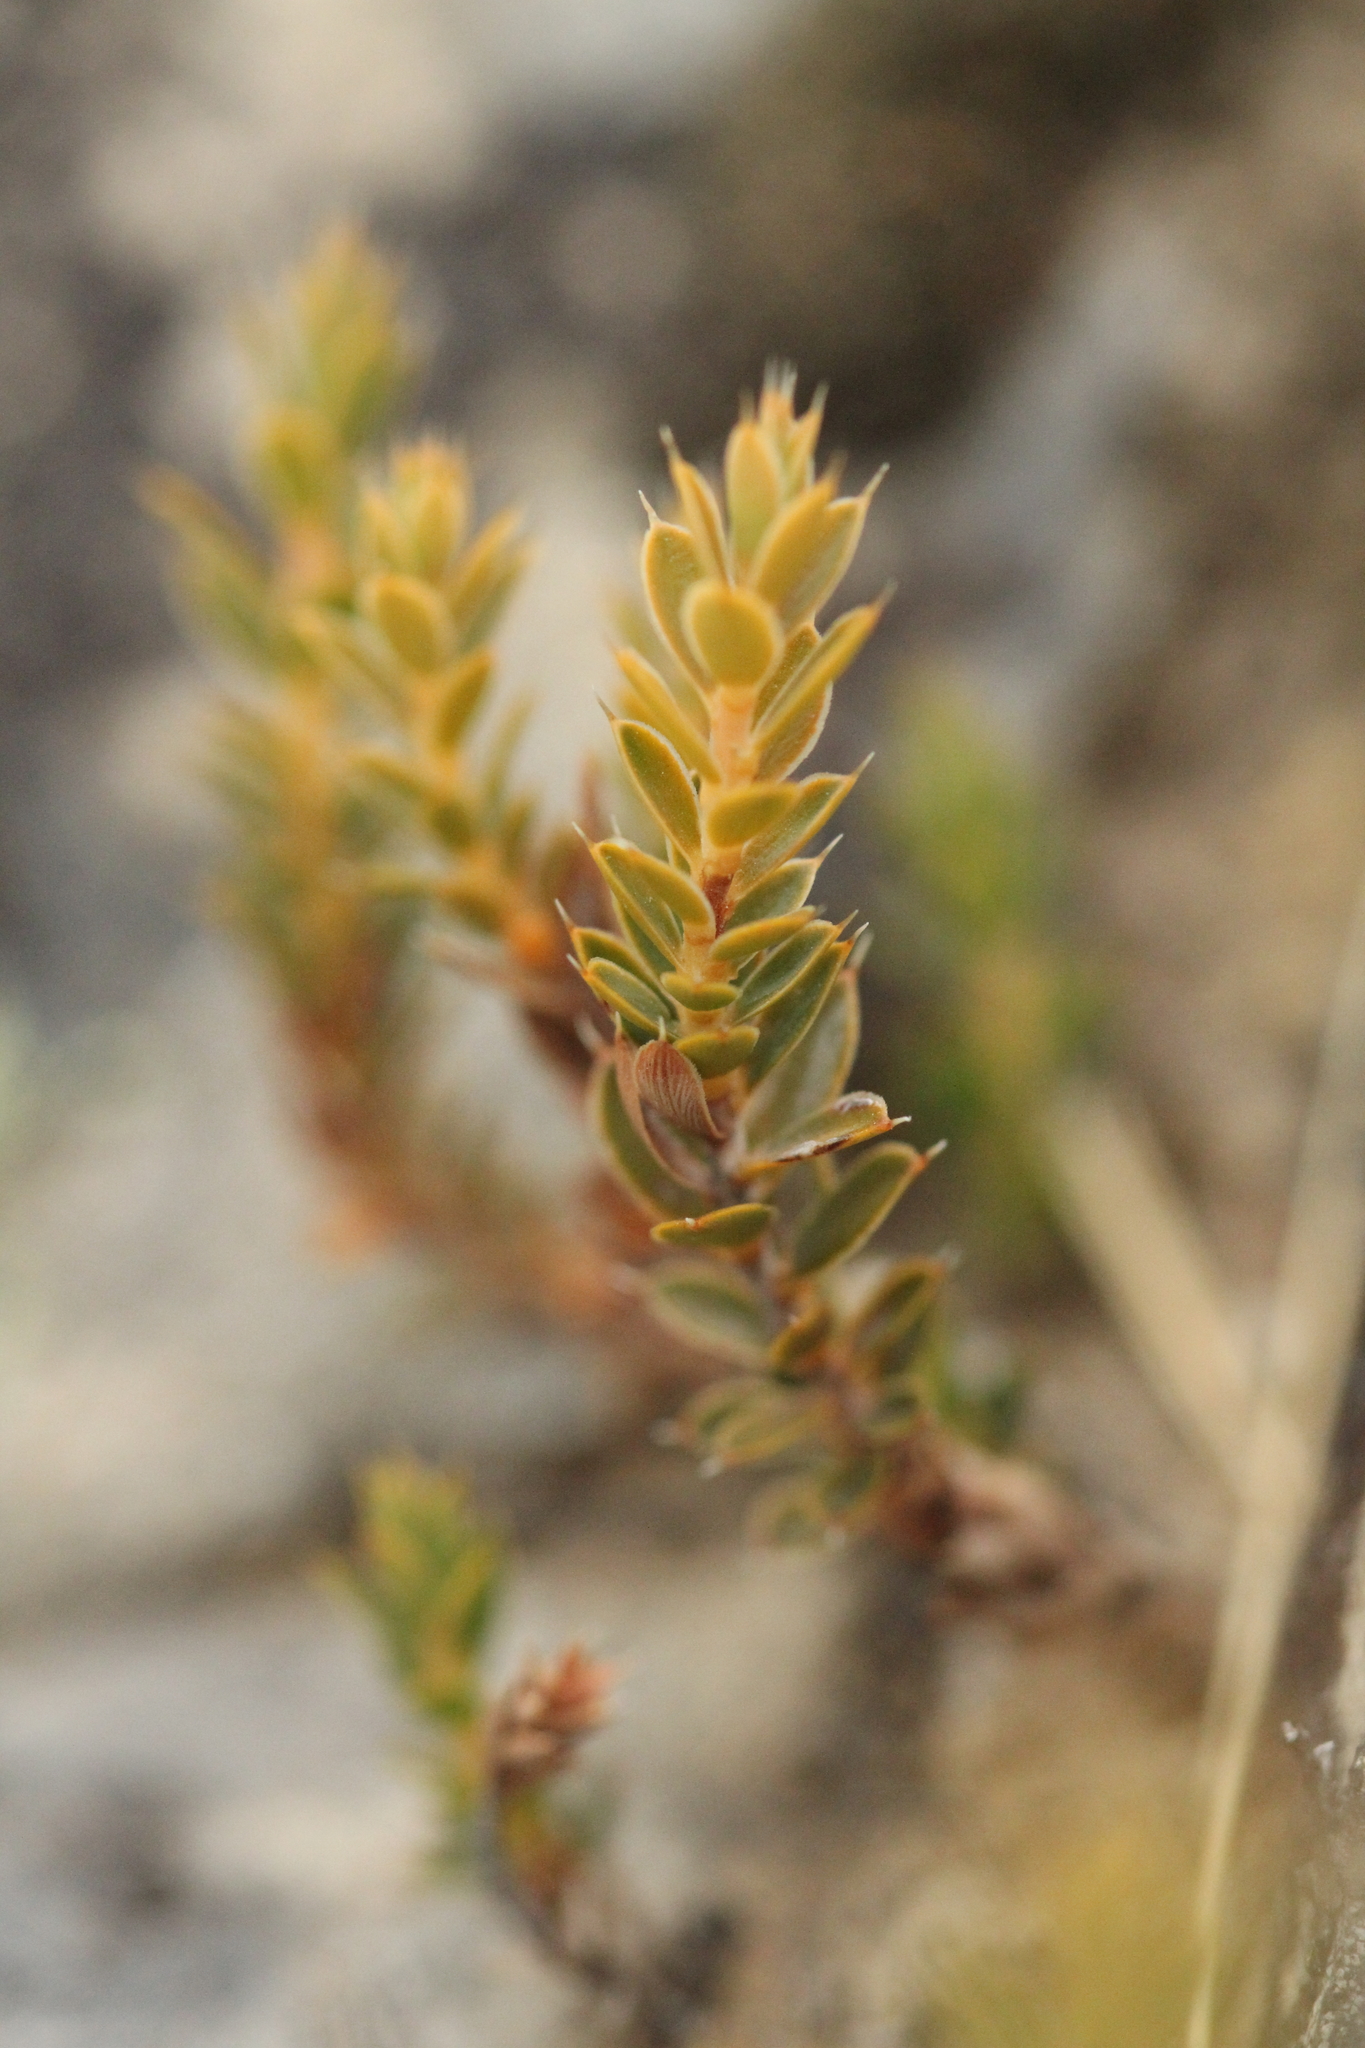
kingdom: Plantae
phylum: Tracheophyta
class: Magnoliopsida
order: Ericales
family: Ericaceae
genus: Styphelia
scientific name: Styphelia nesophila
